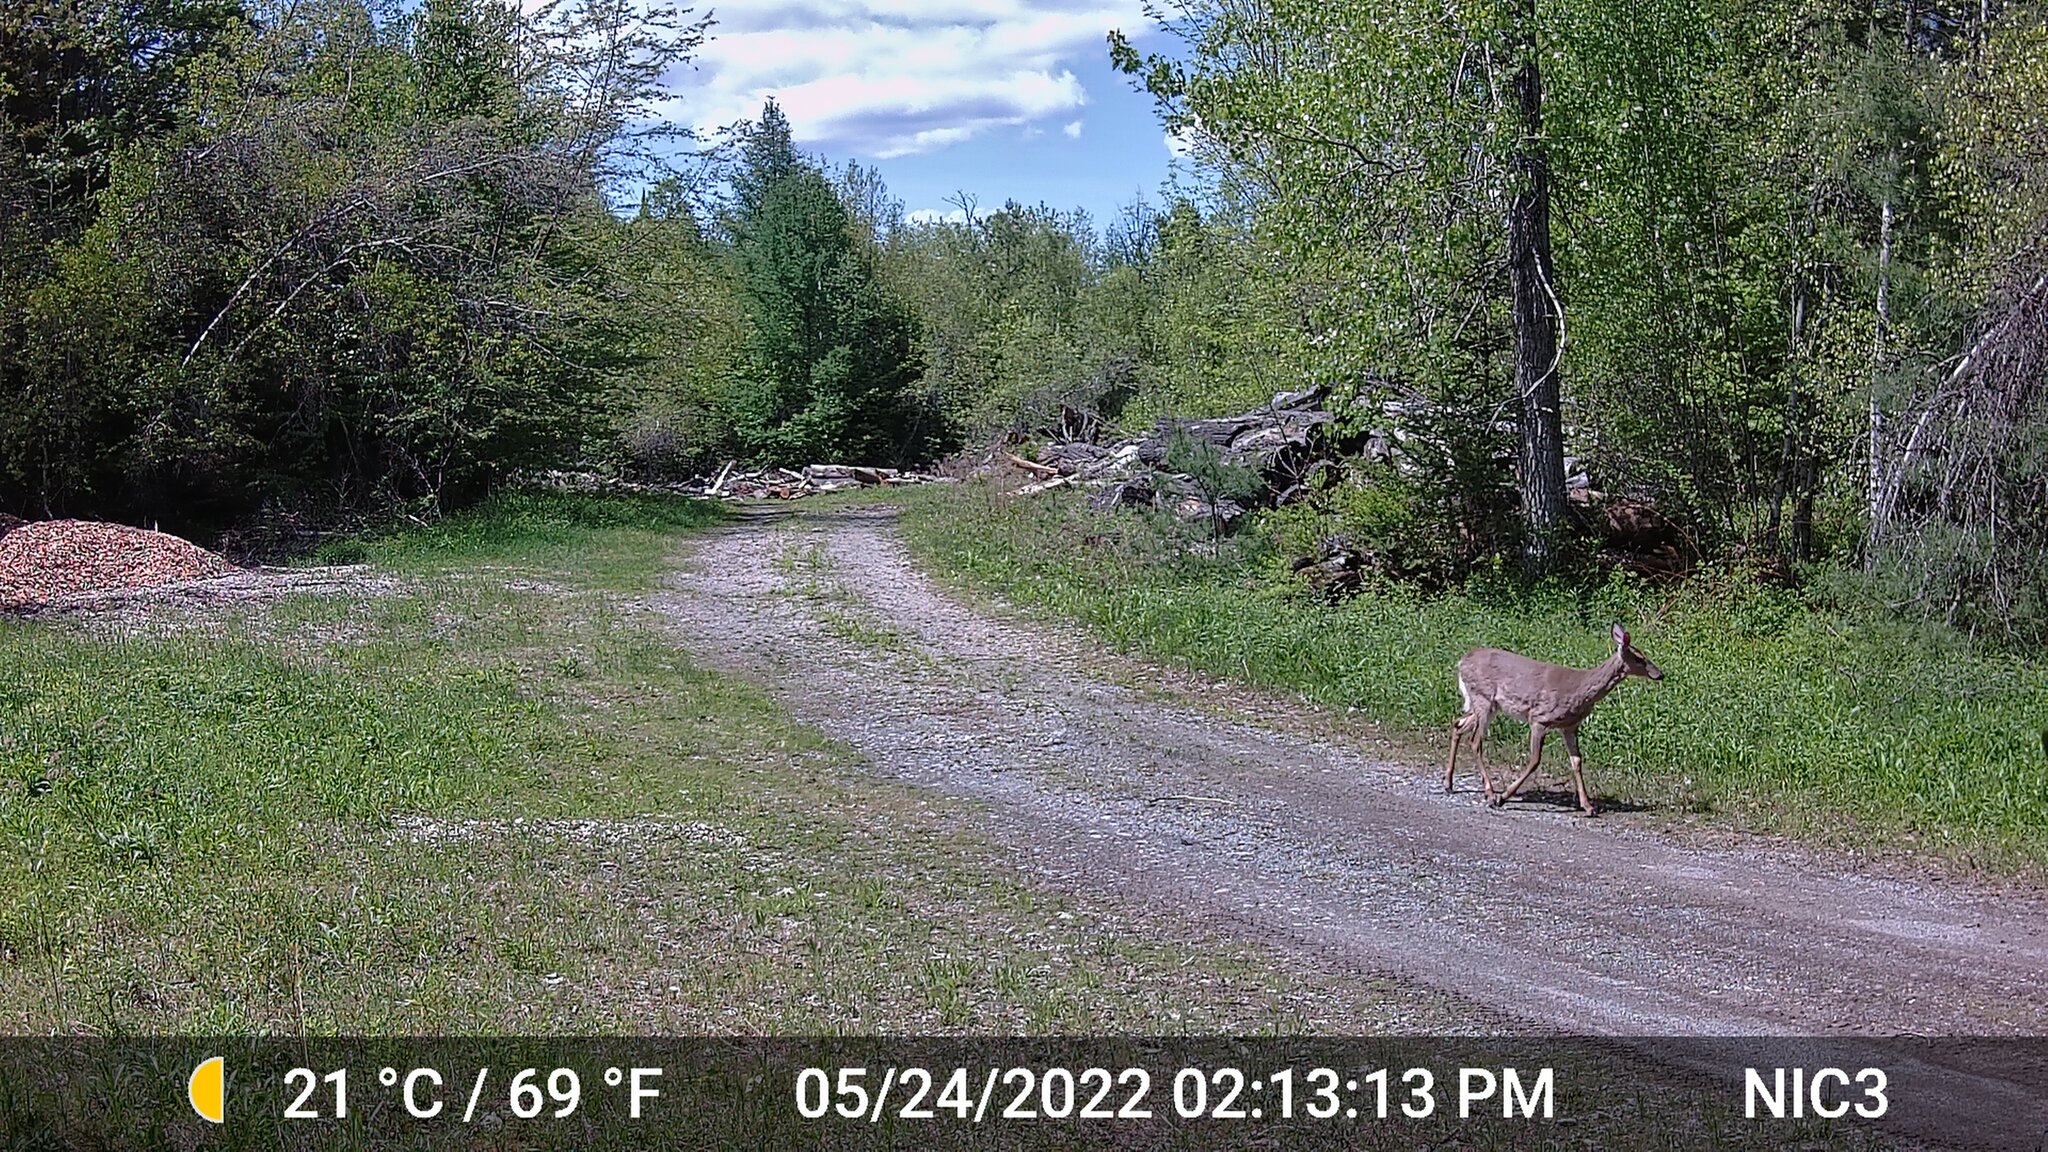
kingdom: Animalia
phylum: Chordata
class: Mammalia
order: Artiodactyla
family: Cervidae
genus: Odocoileus
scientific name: Odocoileus virginianus
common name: White-tailed deer
